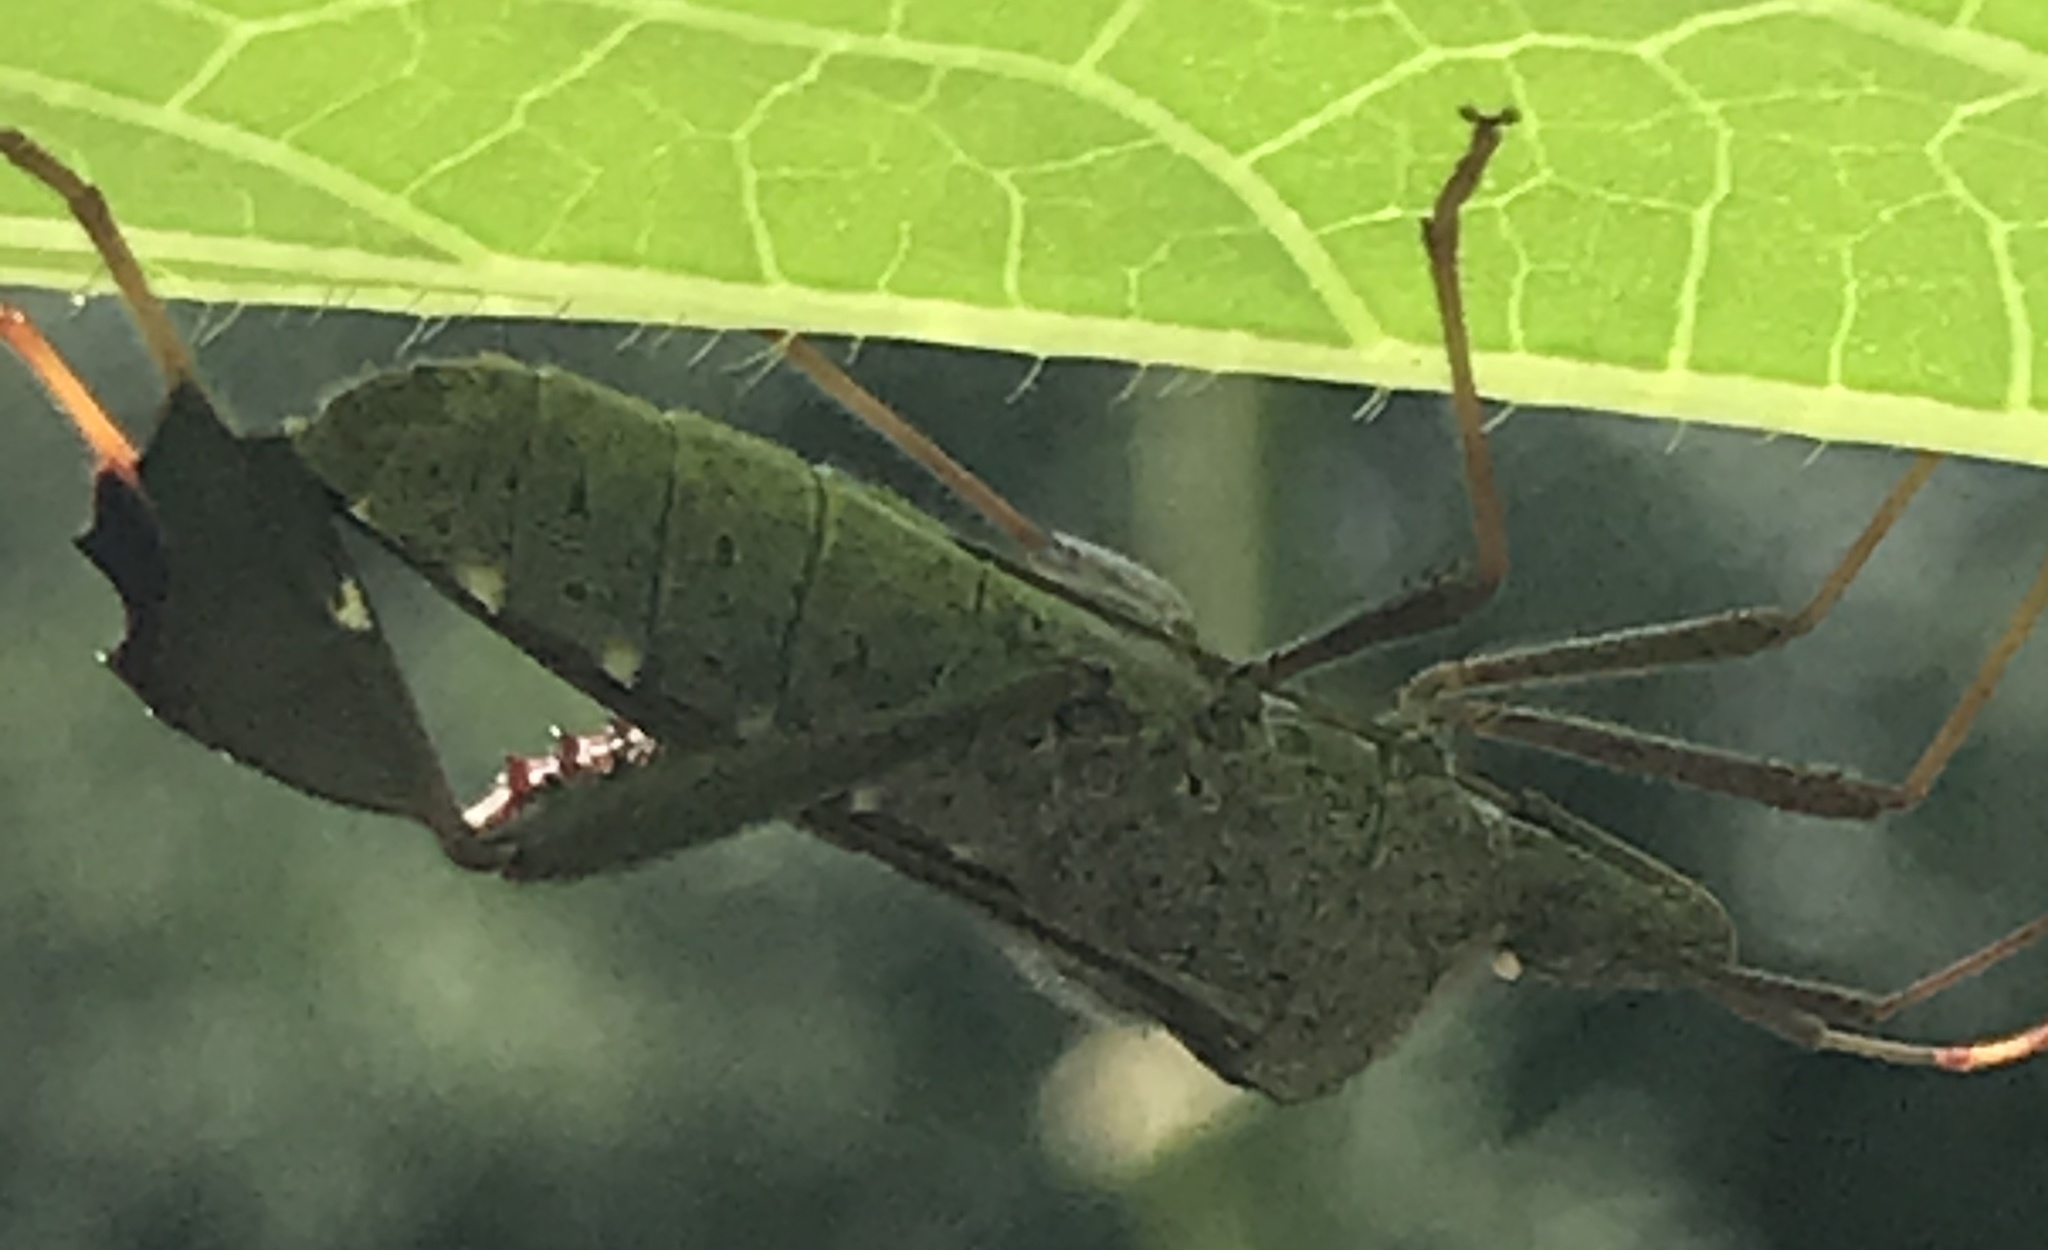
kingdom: Animalia
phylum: Arthropoda
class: Insecta
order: Hemiptera
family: Coreidae
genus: Leptoglossus
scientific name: Leptoglossus oppositus
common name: Northern leaf-footed bug
